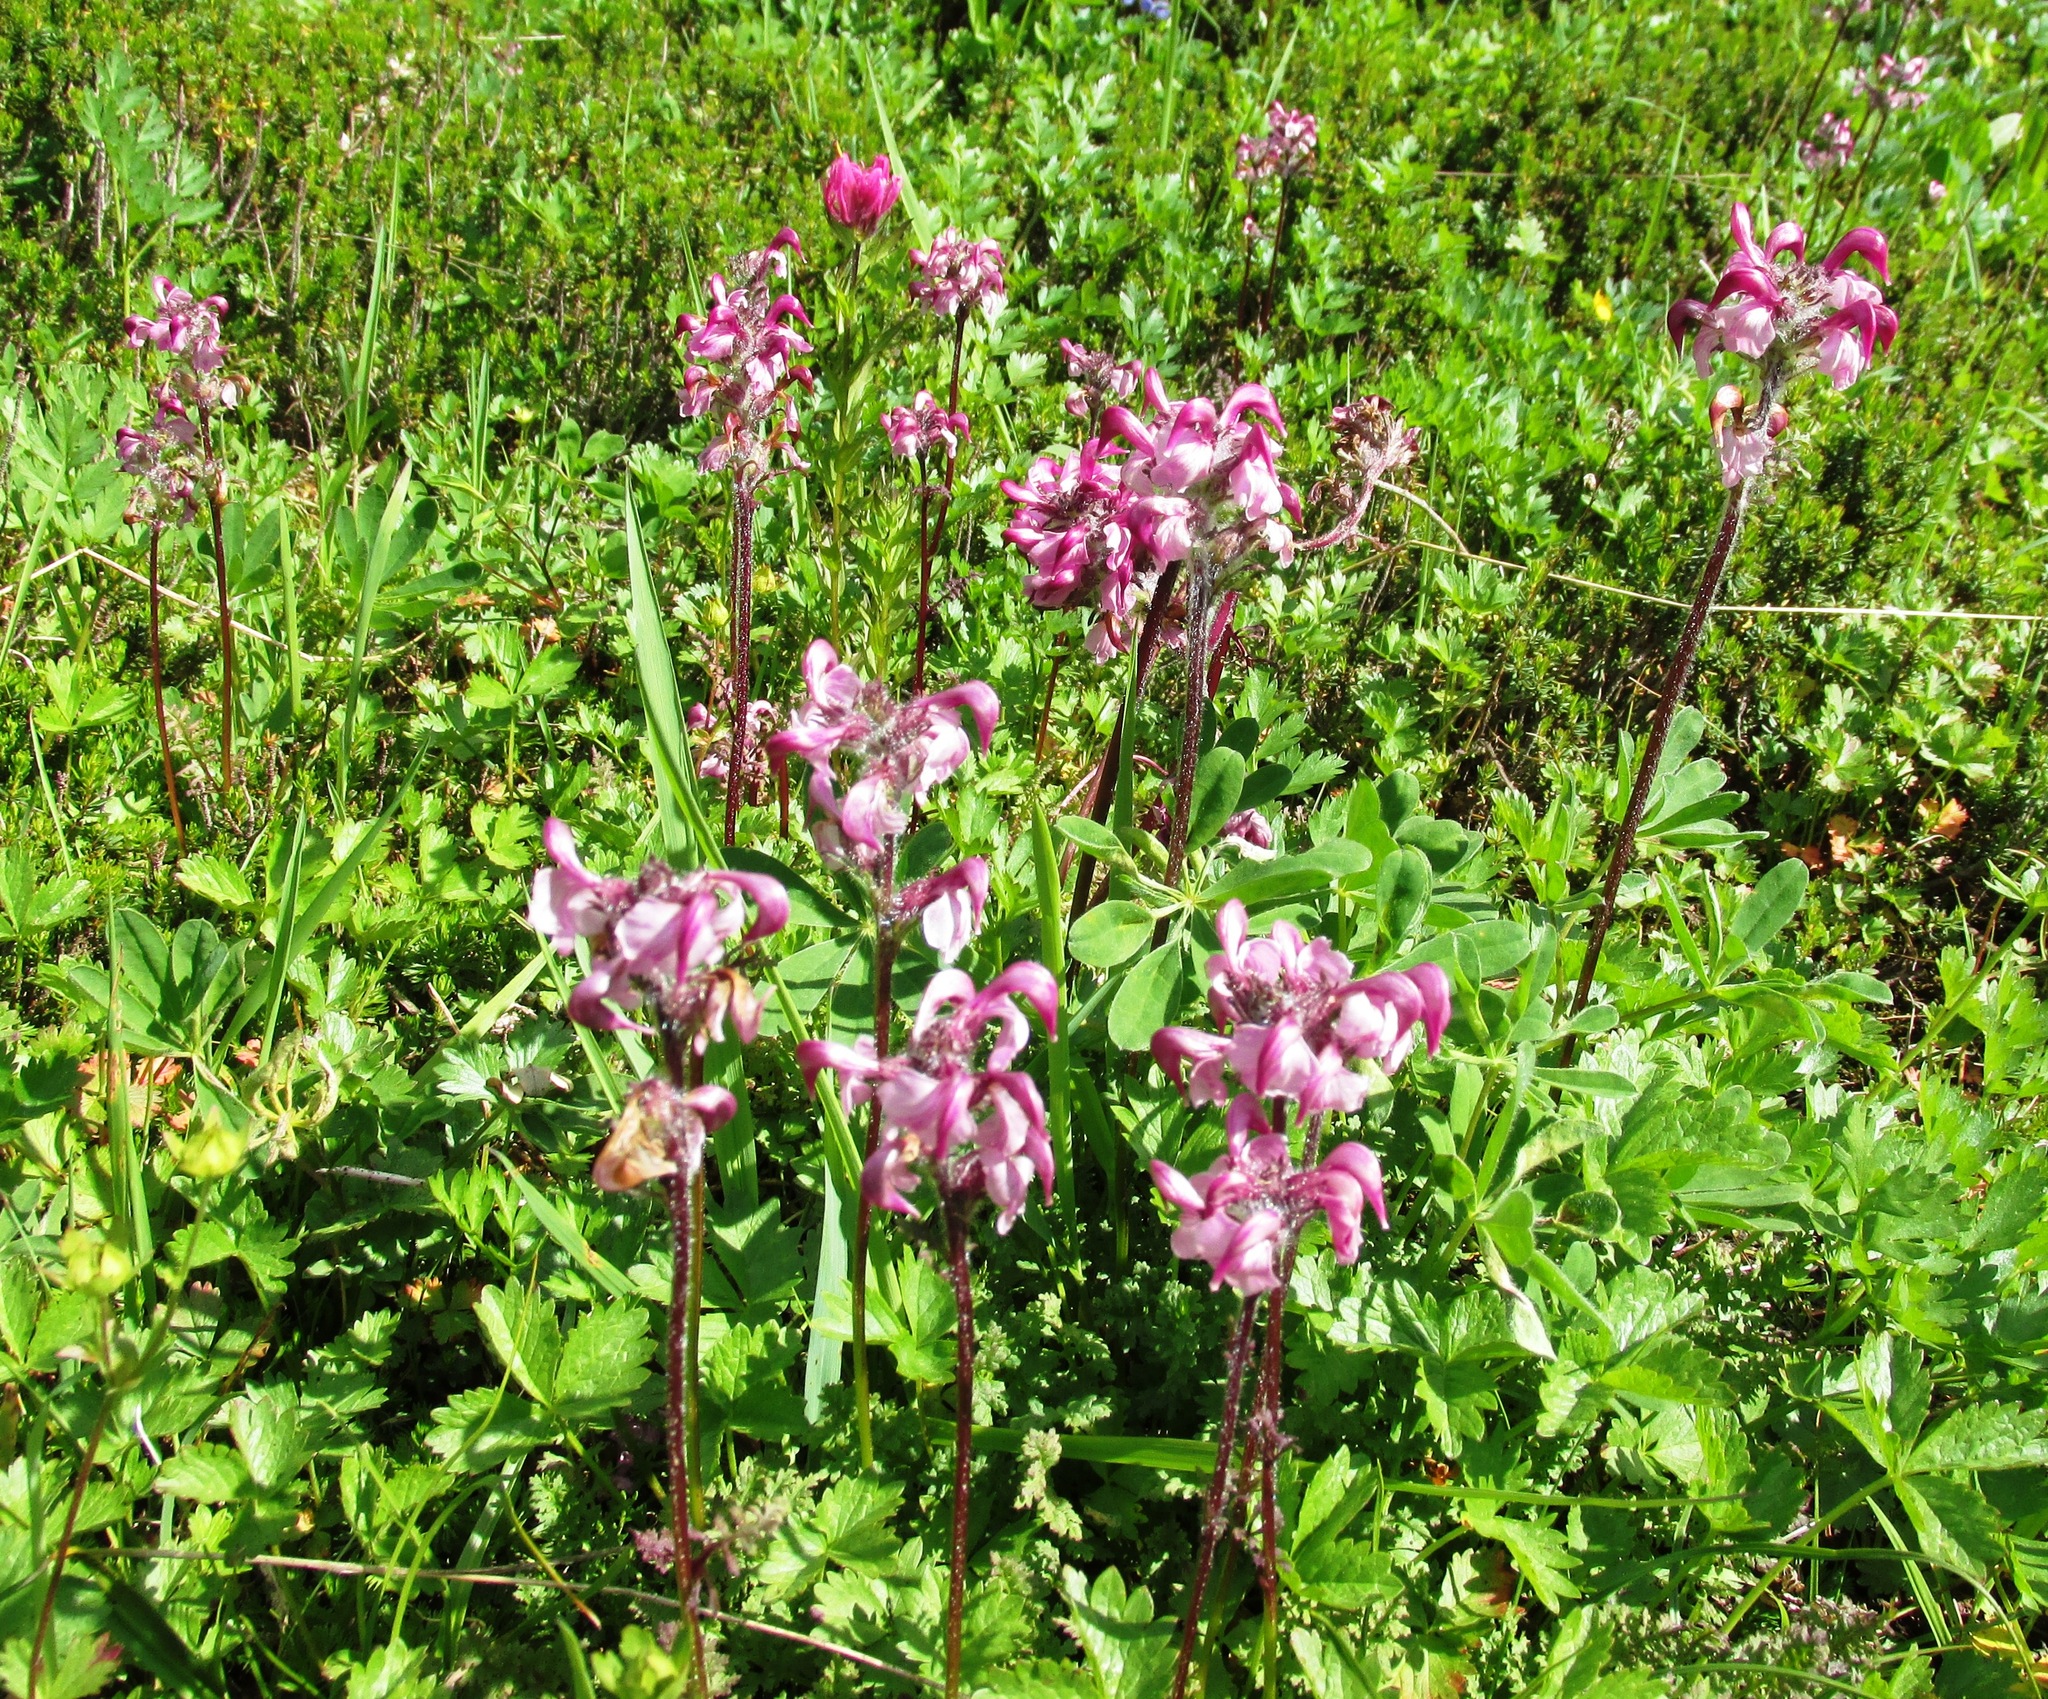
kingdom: Plantae
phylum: Tracheophyta
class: Magnoliopsida
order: Lamiales
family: Orobanchaceae
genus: Pedicularis
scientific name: Pedicularis ornithorhynchos
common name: Bird's-beak lousewort
